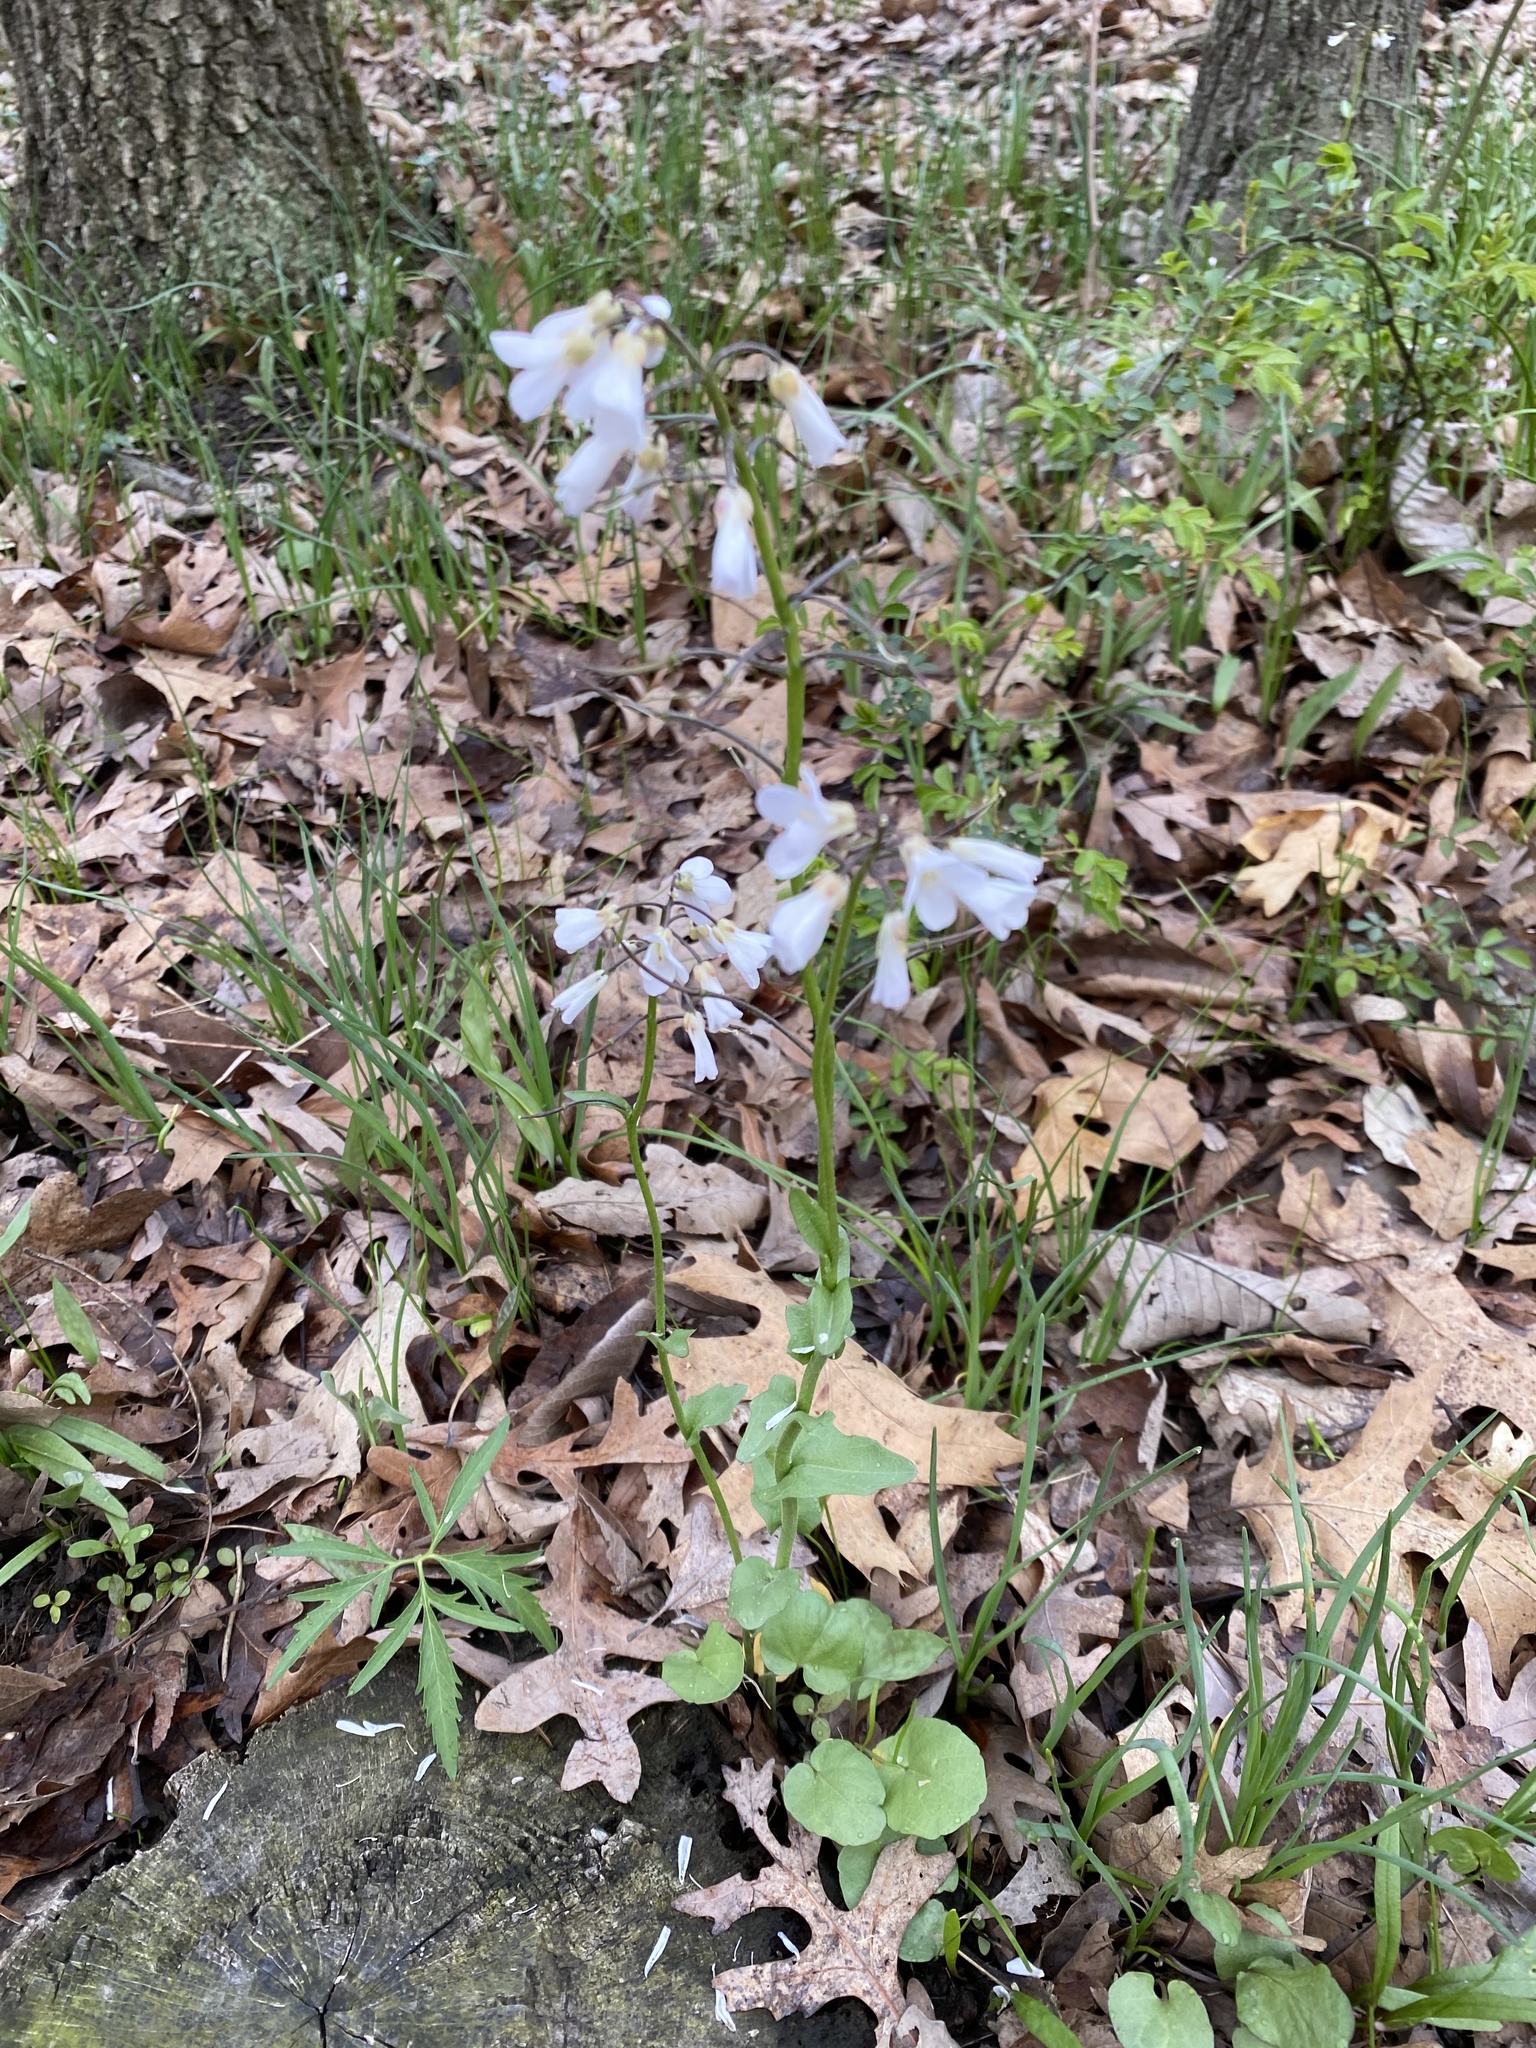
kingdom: Plantae
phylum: Tracheophyta
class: Magnoliopsida
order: Brassicales
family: Brassicaceae
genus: Cardamine
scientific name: Cardamine douglassii
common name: Purple cress
